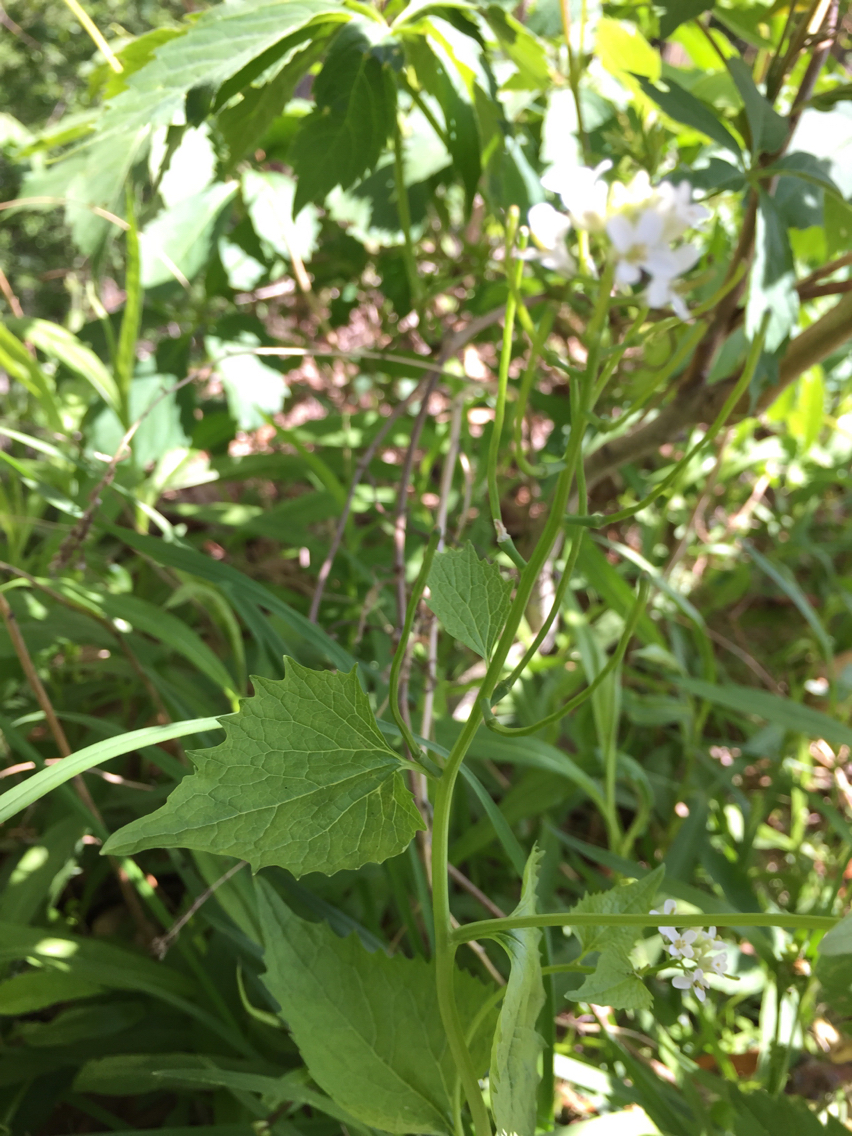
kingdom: Plantae
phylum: Tracheophyta
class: Magnoliopsida
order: Brassicales
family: Brassicaceae
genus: Alliaria
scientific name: Alliaria petiolata
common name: Garlic mustard
